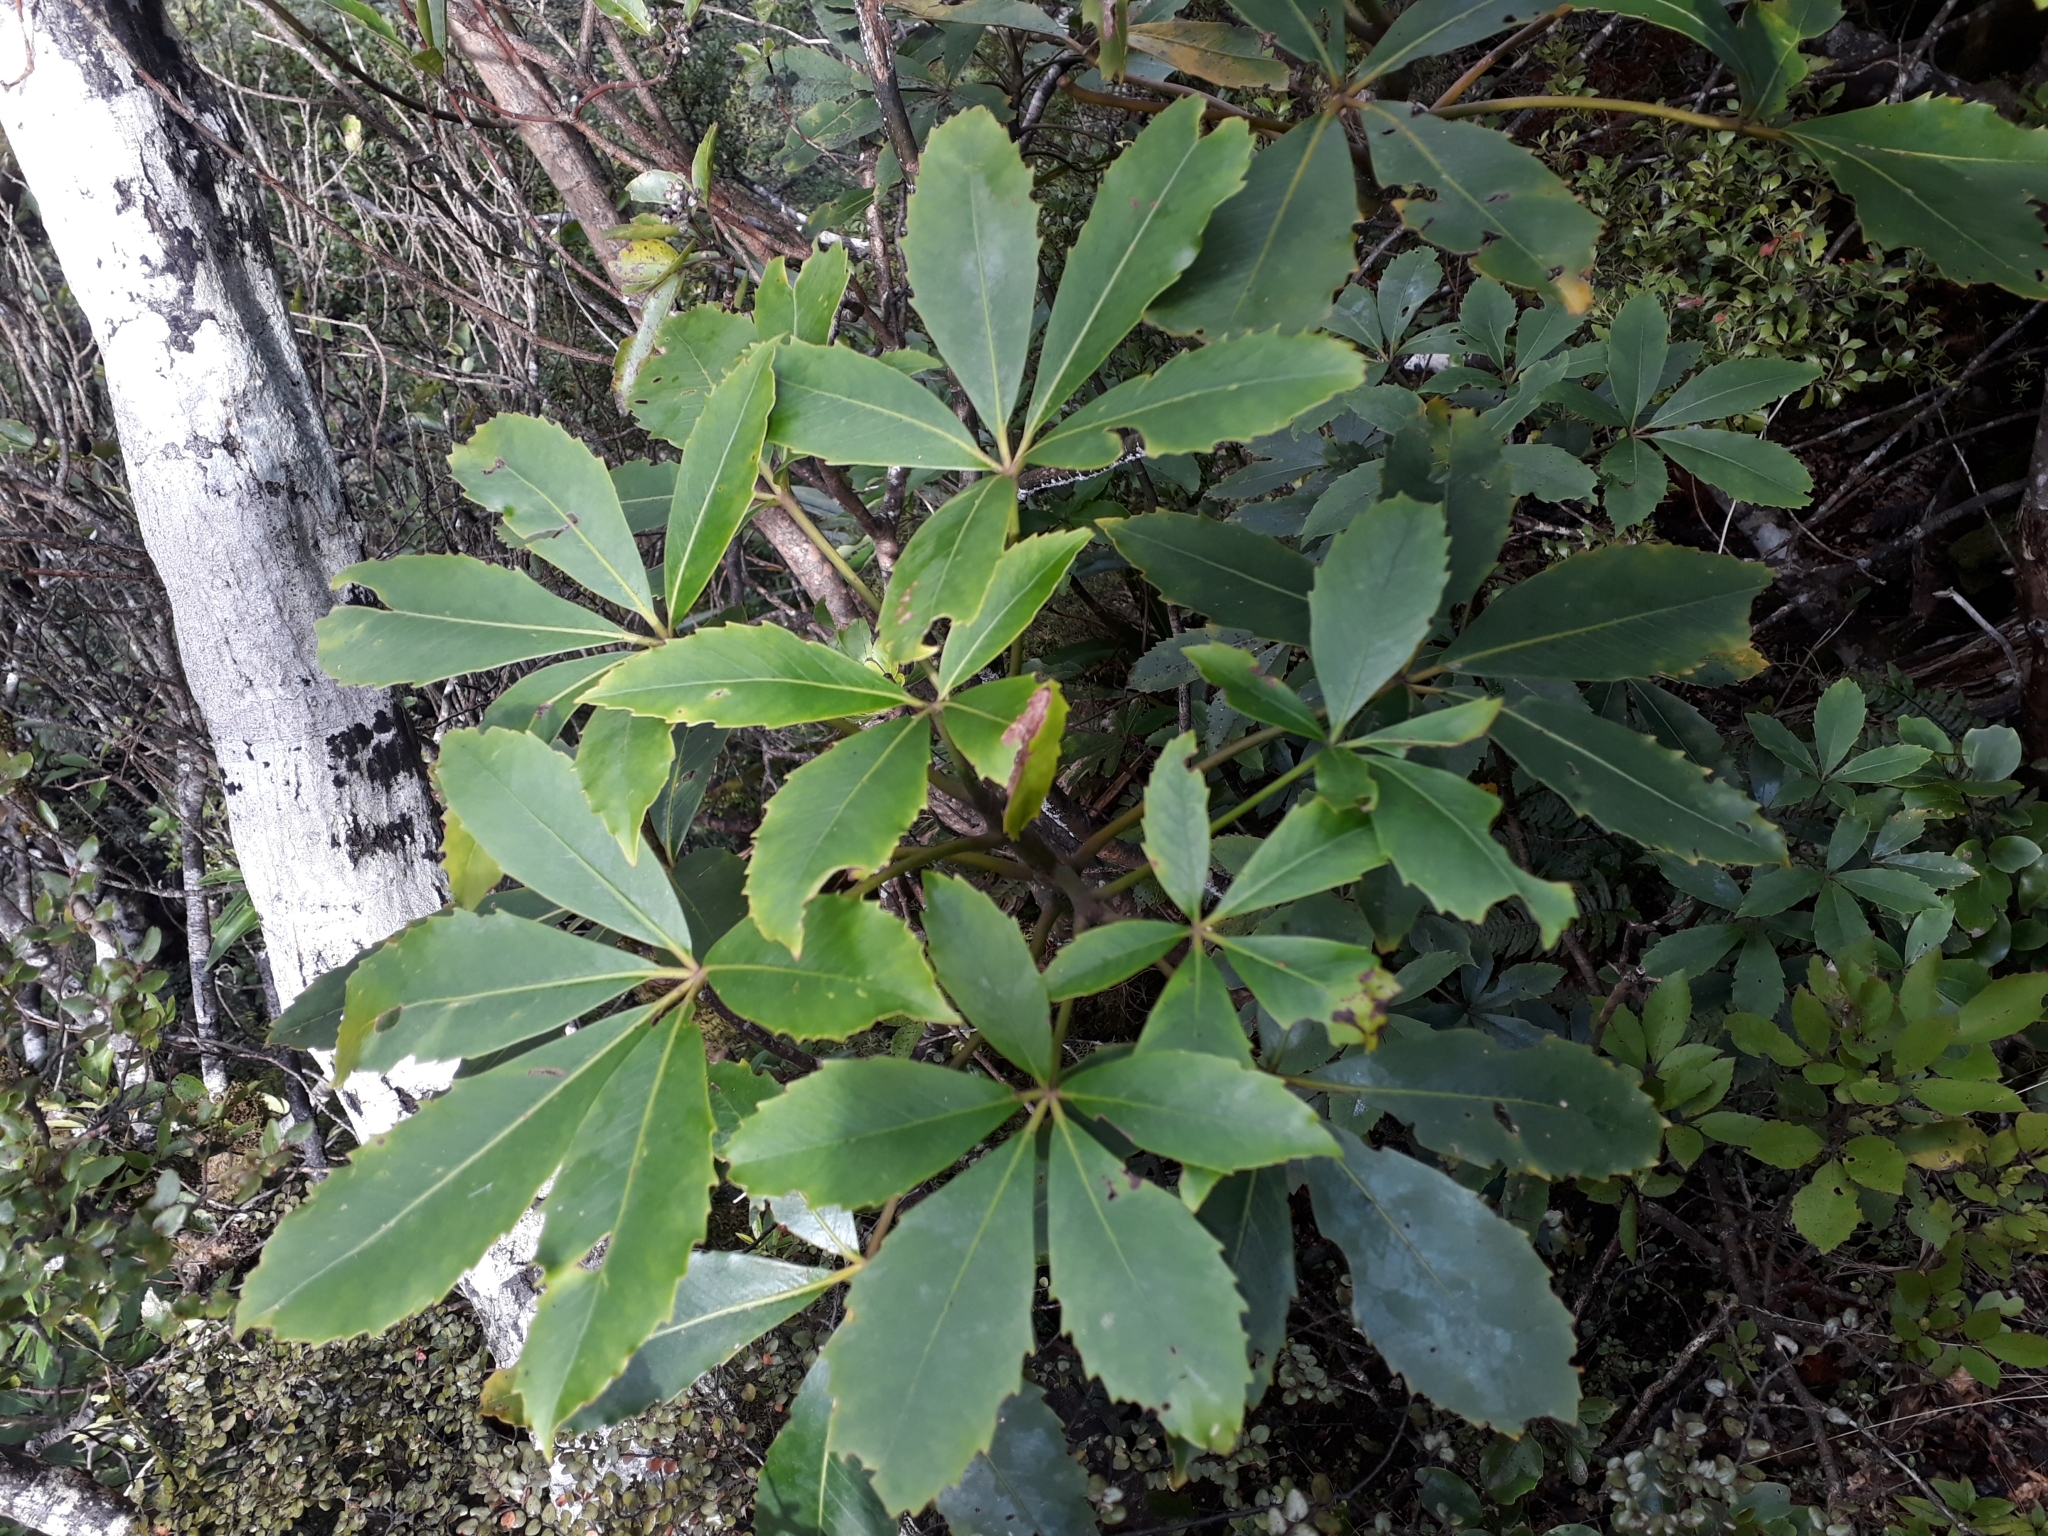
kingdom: Plantae
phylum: Tracheophyta
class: Magnoliopsida
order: Apiales
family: Araliaceae
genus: Neopanax
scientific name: Neopanax colensoi
